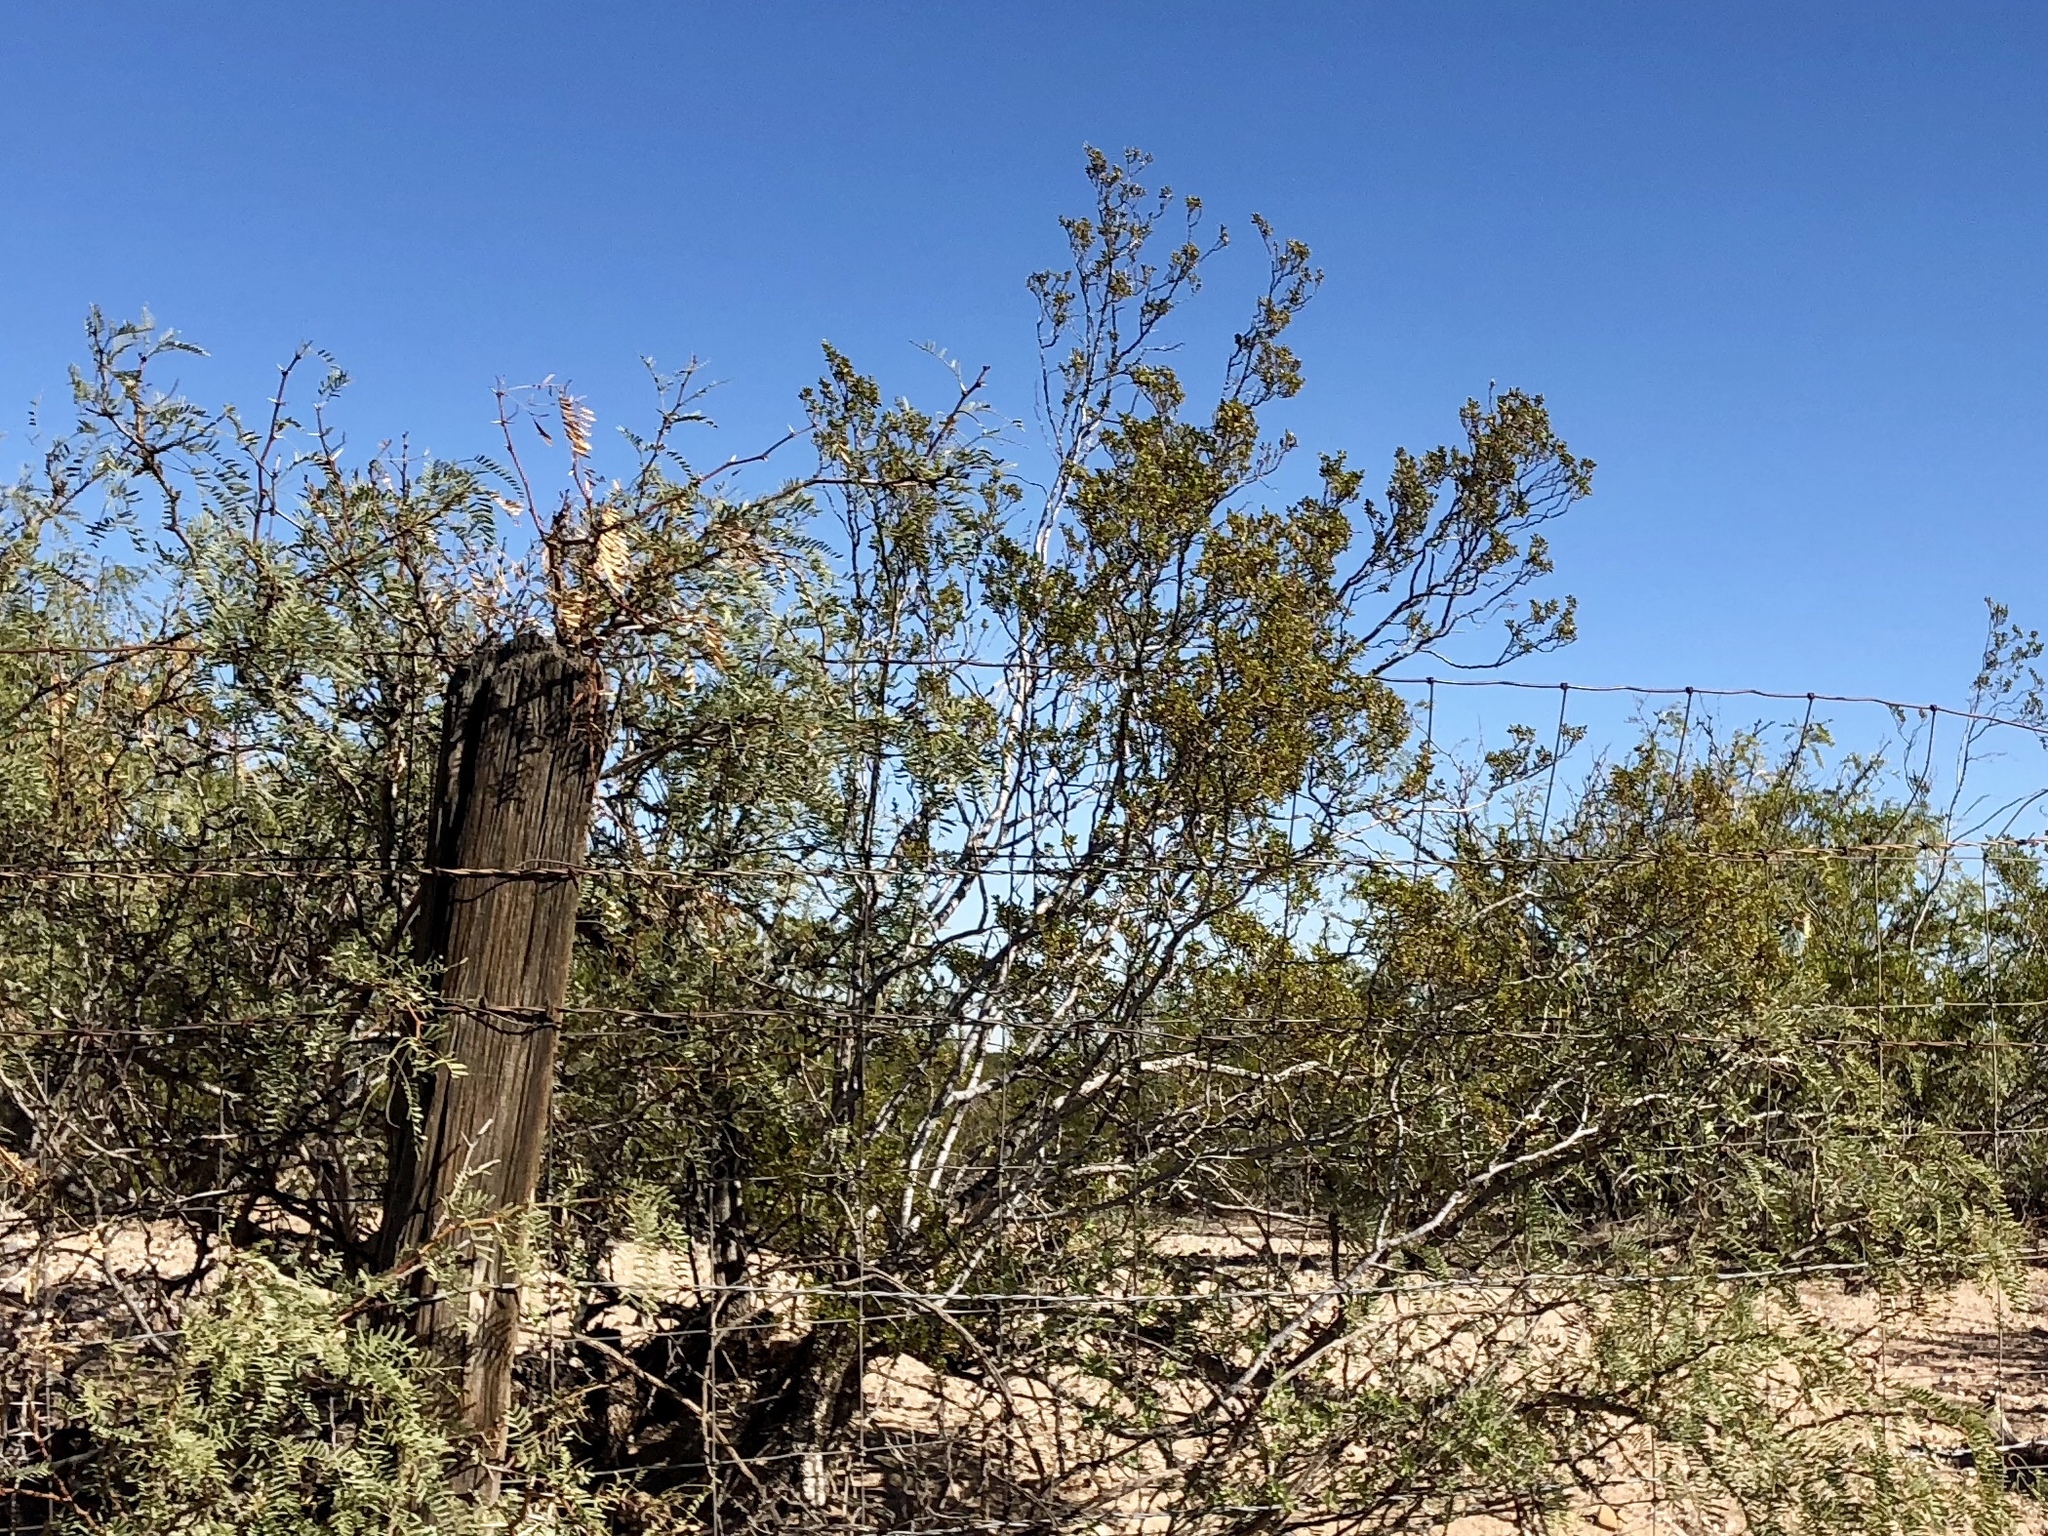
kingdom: Plantae
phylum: Tracheophyta
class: Magnoliopsida
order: Zygophyllales
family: Zygophyllaceae
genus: Larrea
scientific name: Larrea tridentata
